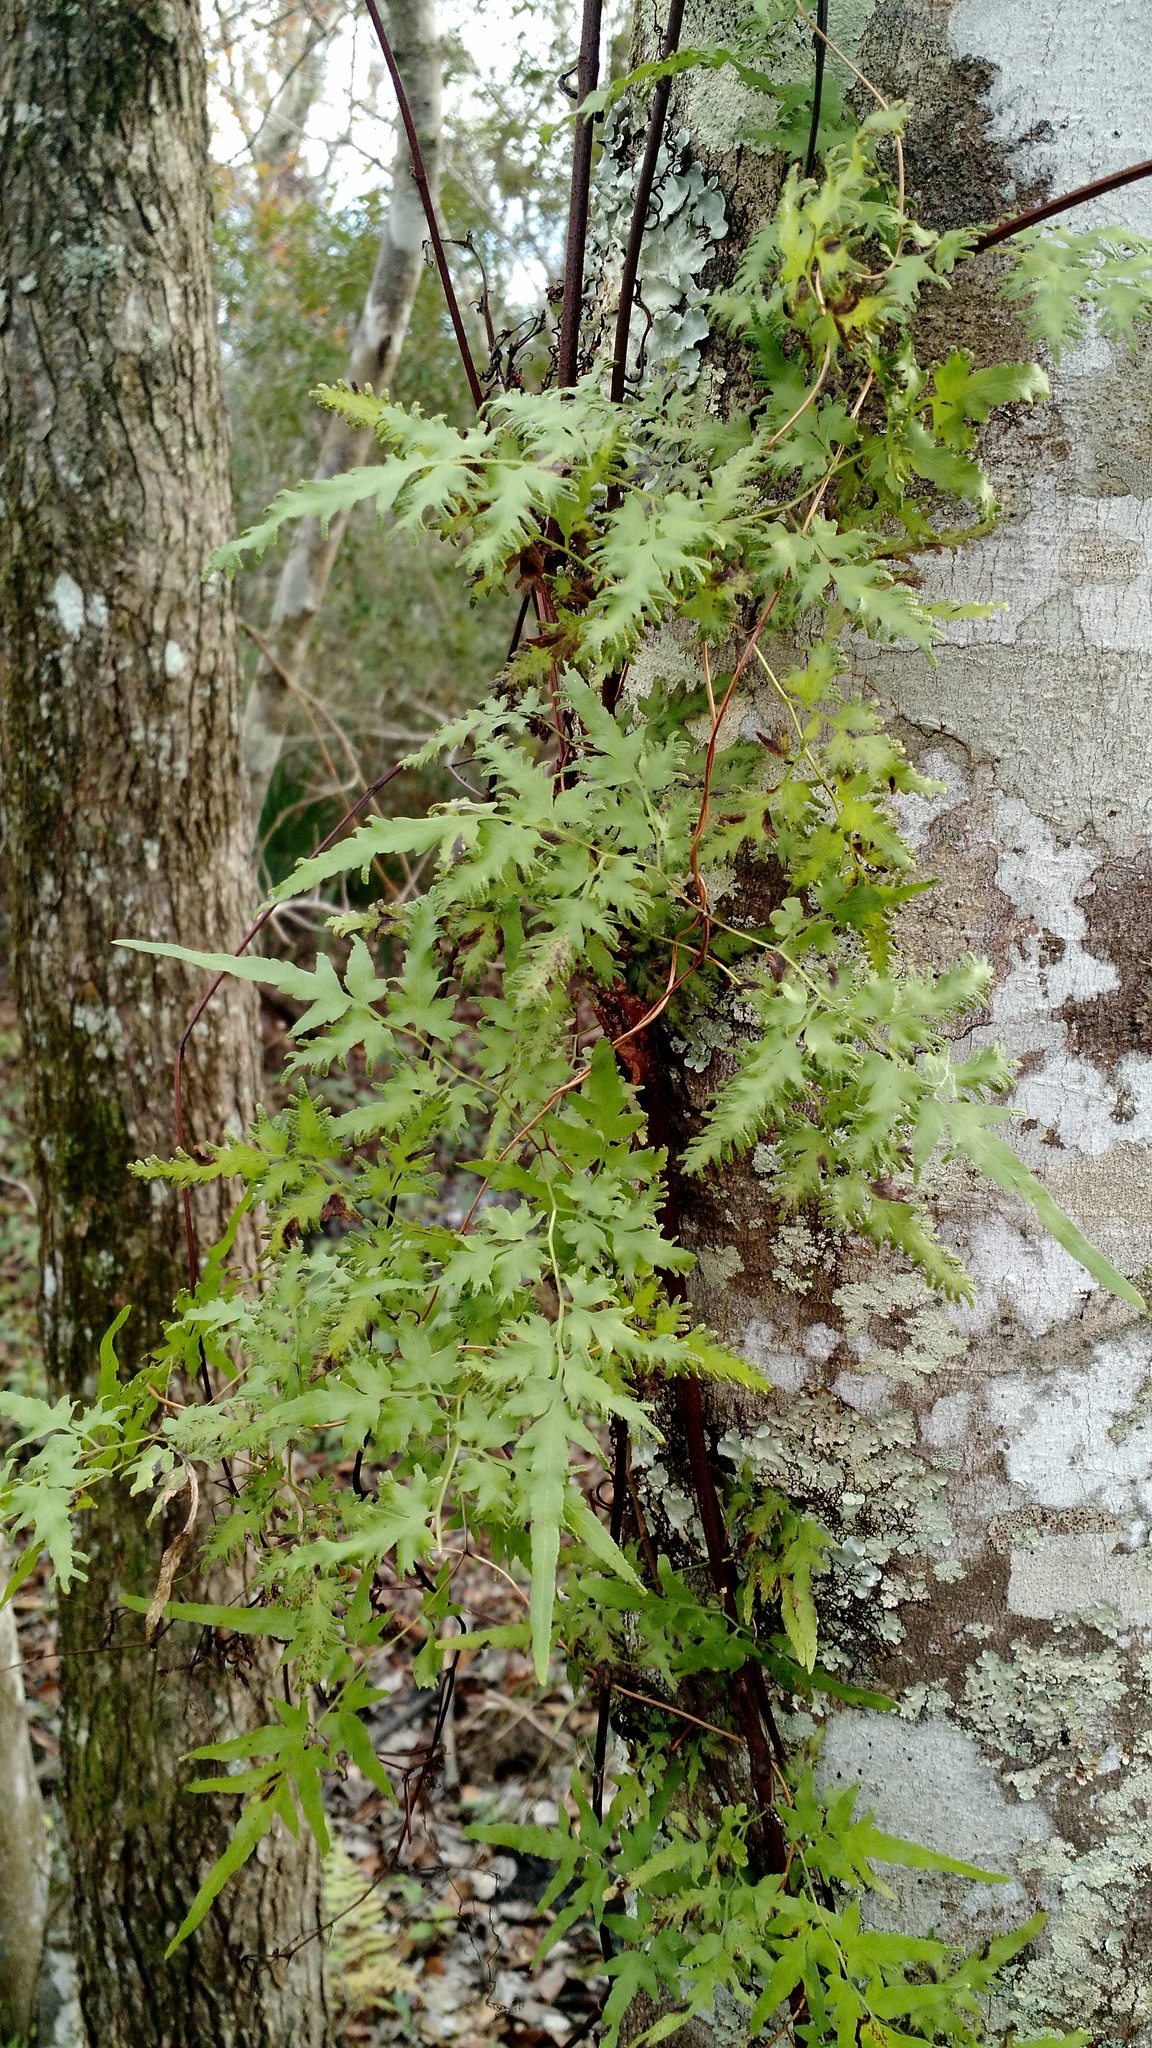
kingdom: Plantae
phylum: Tracheophyta
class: Polypodiopsida
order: Schizaeales
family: Lygodiaceae
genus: Lygodium
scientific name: Lygodium japonicum
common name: Japanese climbing fern
